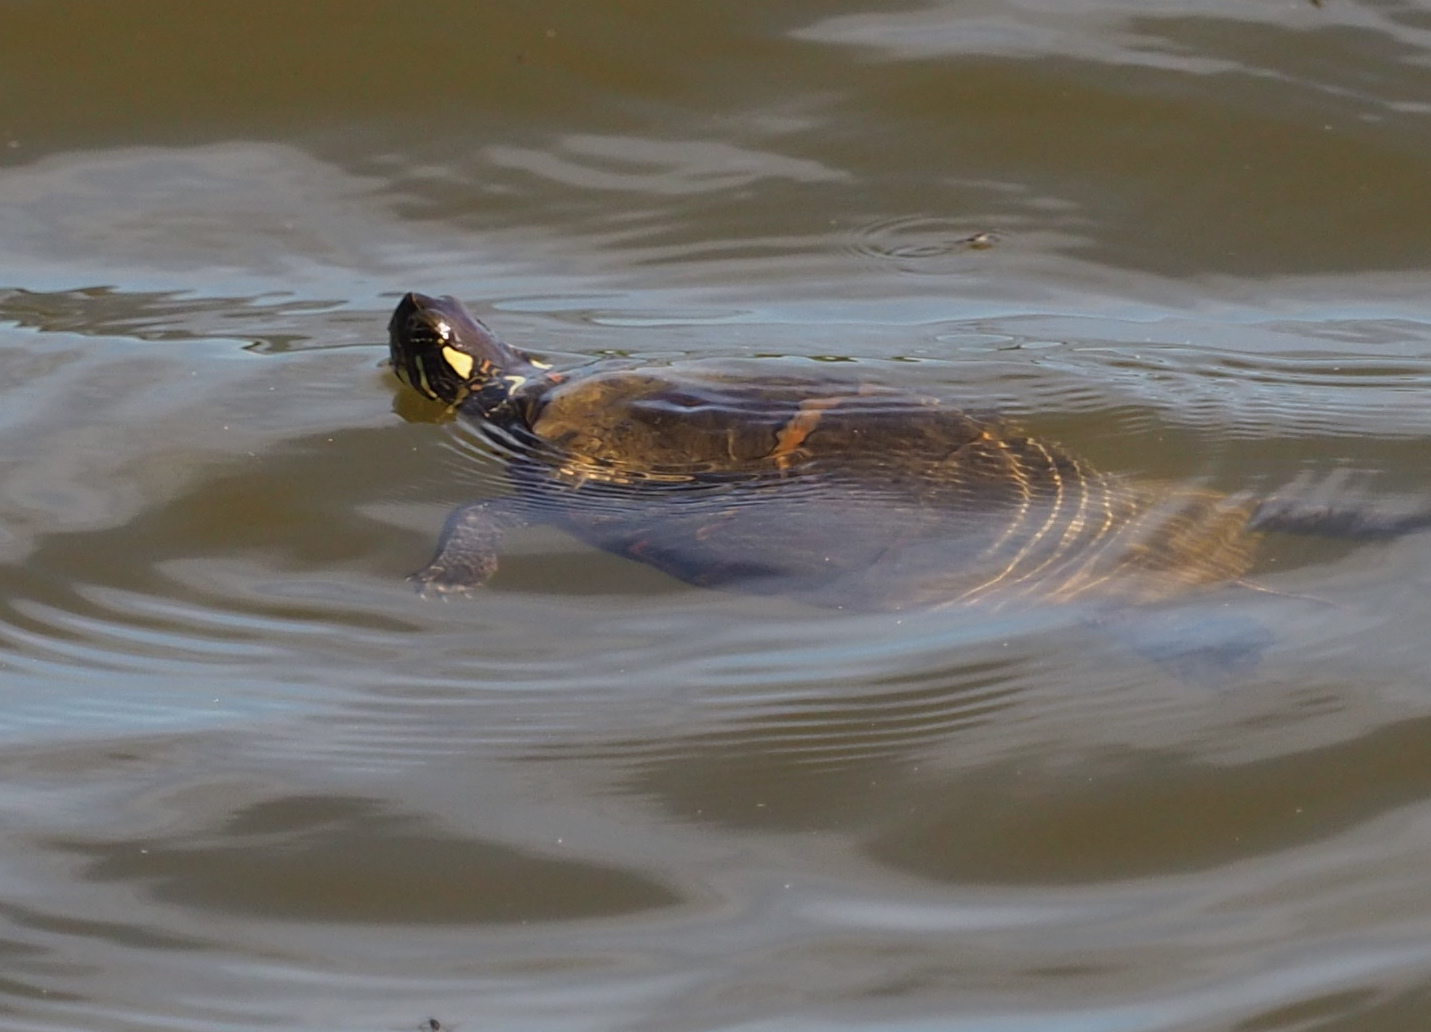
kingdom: Animalia
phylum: Chordata
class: Testudines
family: Emydidae
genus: Chrysemys
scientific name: Chrysemys picta
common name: Painted turtle
